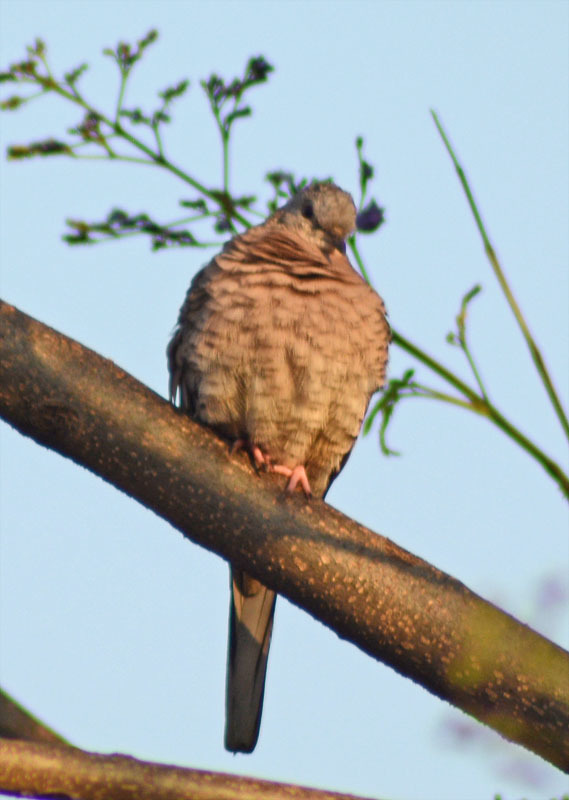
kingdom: Animalia
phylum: Chordata
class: Aves
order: Columbiformes
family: Columbidae
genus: Columbina
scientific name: Columbina inca
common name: Inca dove
